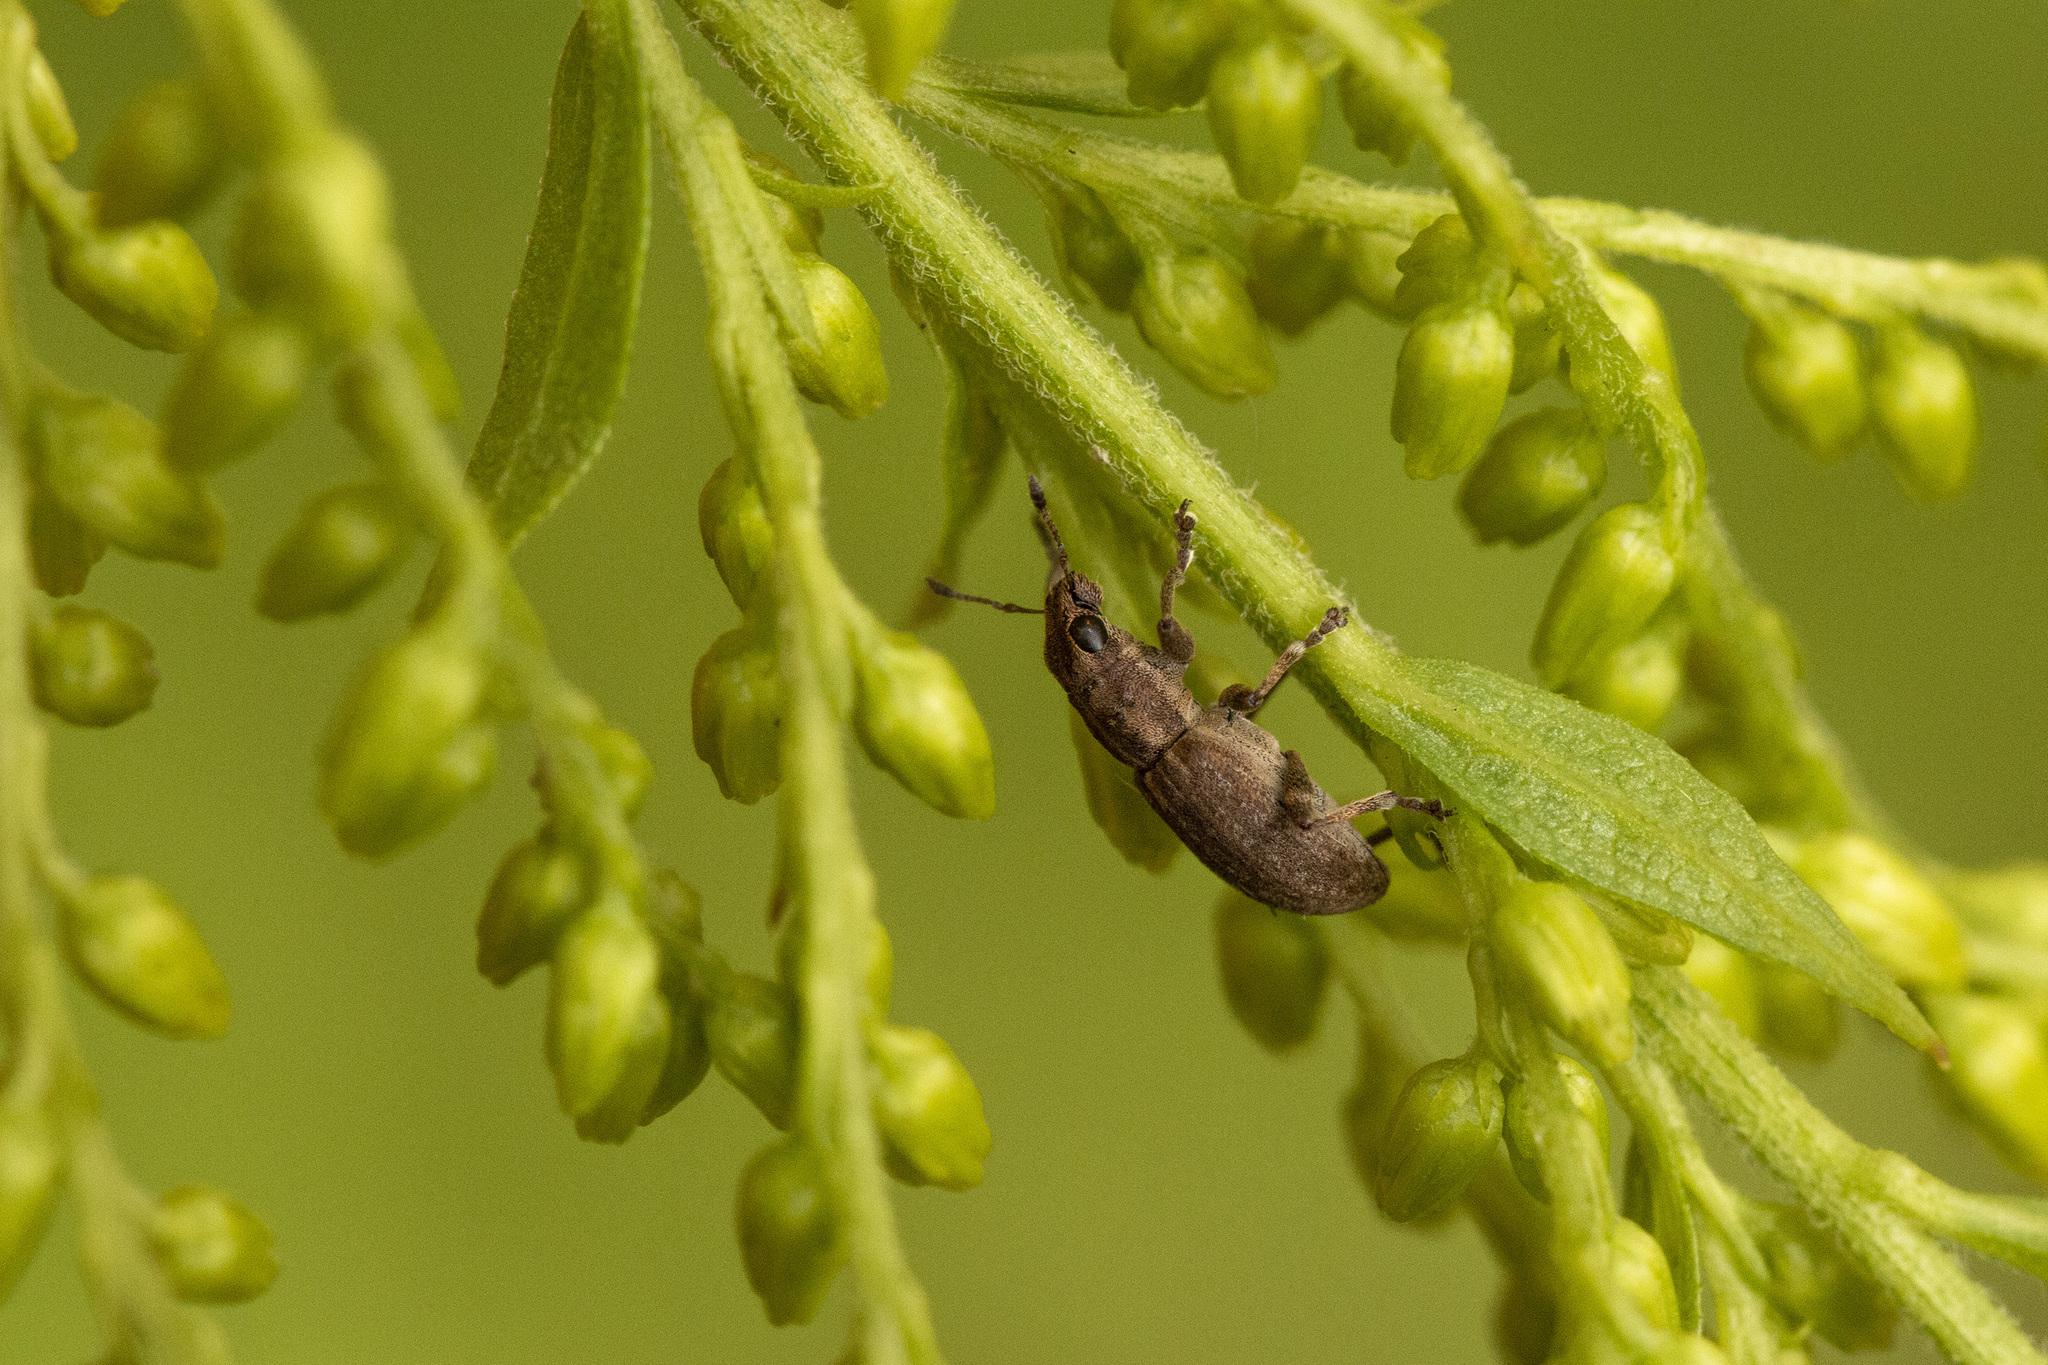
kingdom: Animalia
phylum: Arthropoda
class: Insecta
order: Coleoptera
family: Curculionidae
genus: Sitona
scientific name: Sitona obsoletus
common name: Weevil
